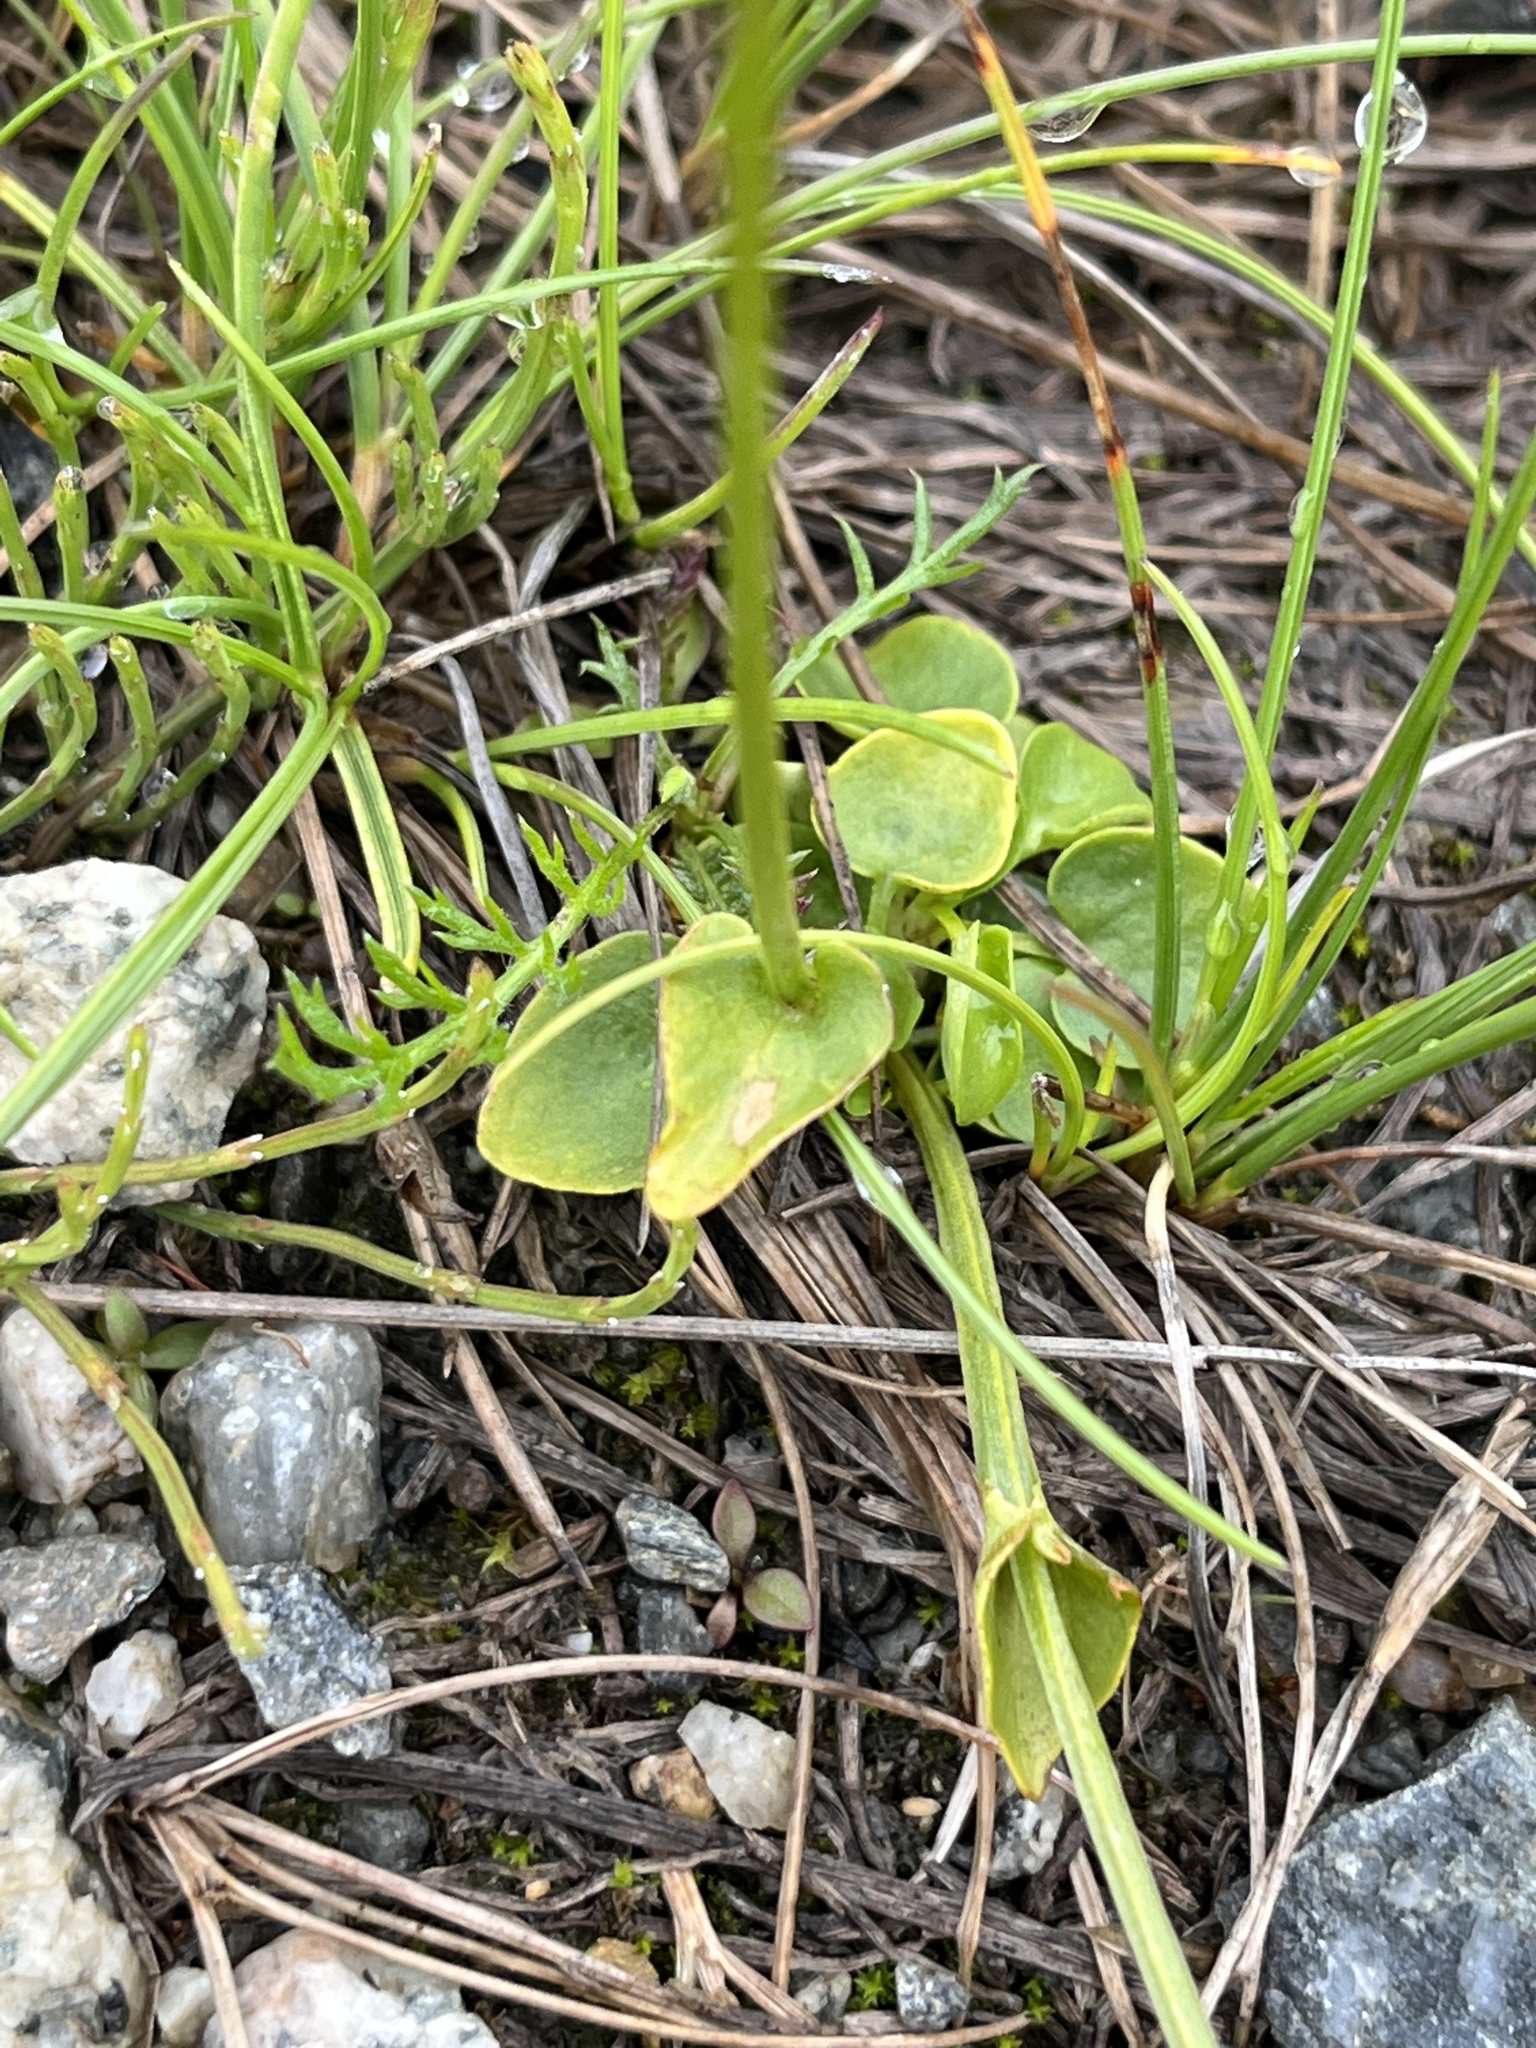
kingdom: Plantae
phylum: Tracheophyta
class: Magnoliopsida
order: Celastrales
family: Parnassiaceae
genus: Parnassia
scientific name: Parnassia palustris
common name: Grass-of-parnassus
